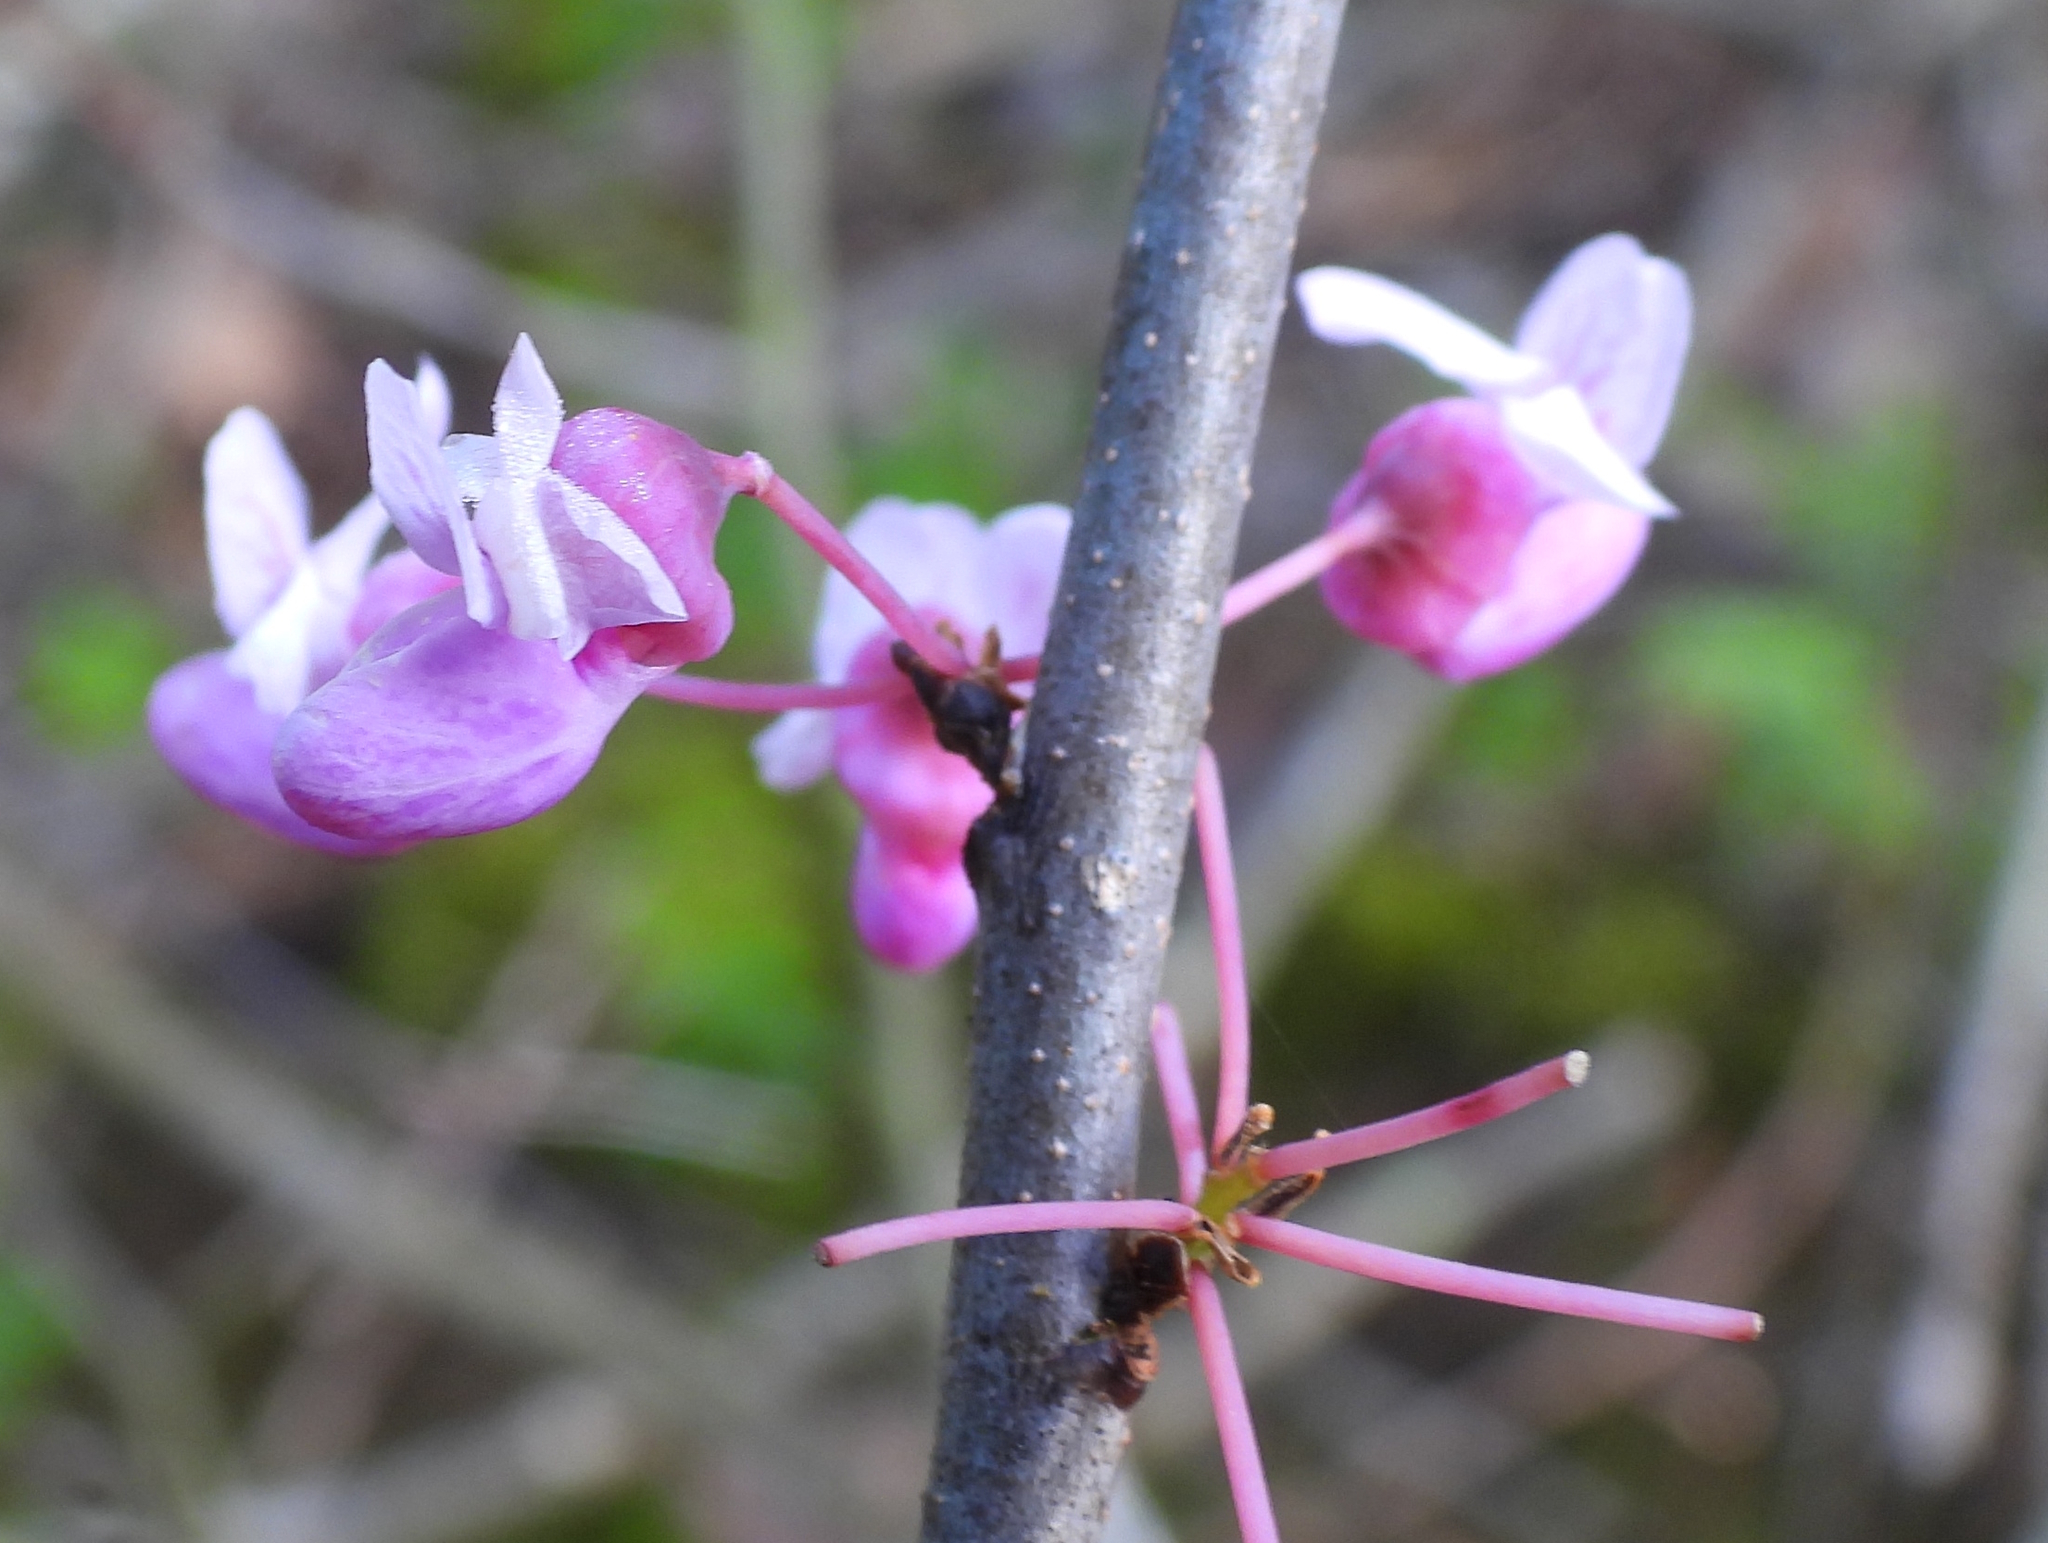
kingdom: Plantae
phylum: Tracheophyta
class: Magnoliopsida
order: Fabales
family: Fabaceae
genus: Cercis
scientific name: Cercis canadensis
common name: Eastern redbud
